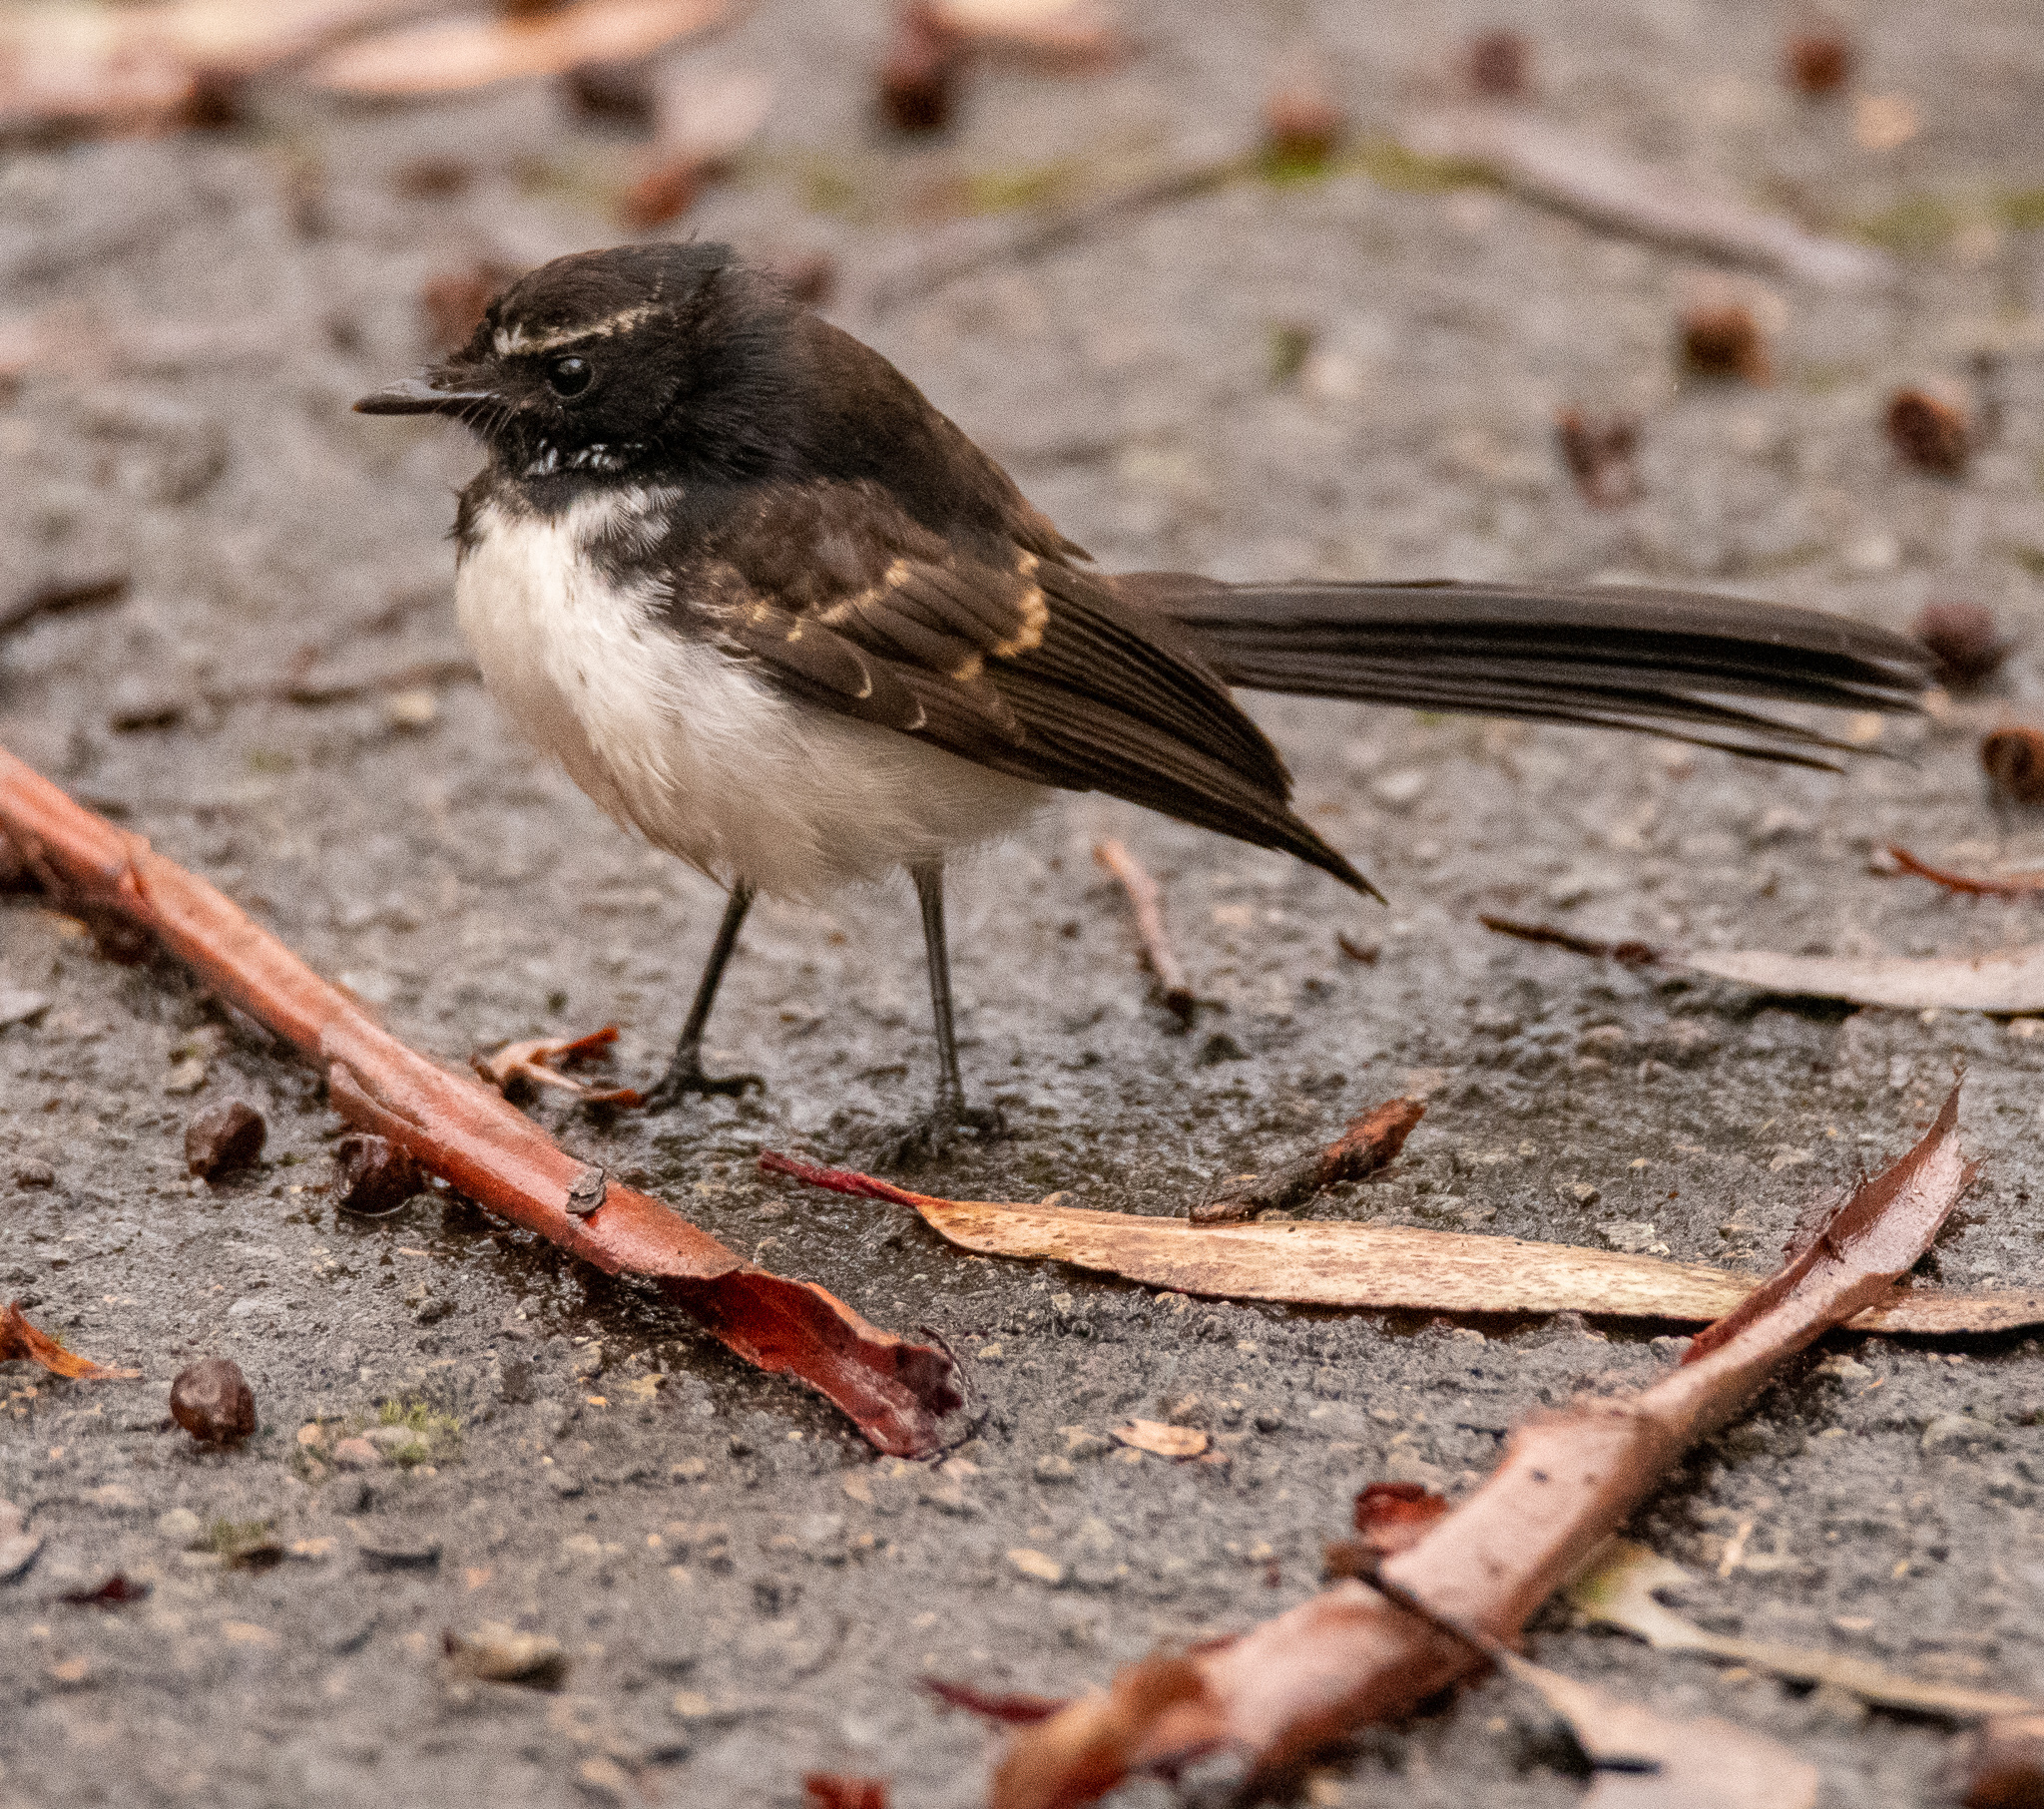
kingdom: Animalia
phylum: Chordata
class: Aves
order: Passeriformes
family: Rhipiduridae
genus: Rhipidura
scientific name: Rhipidura leucophrys
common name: Willie wagtail
